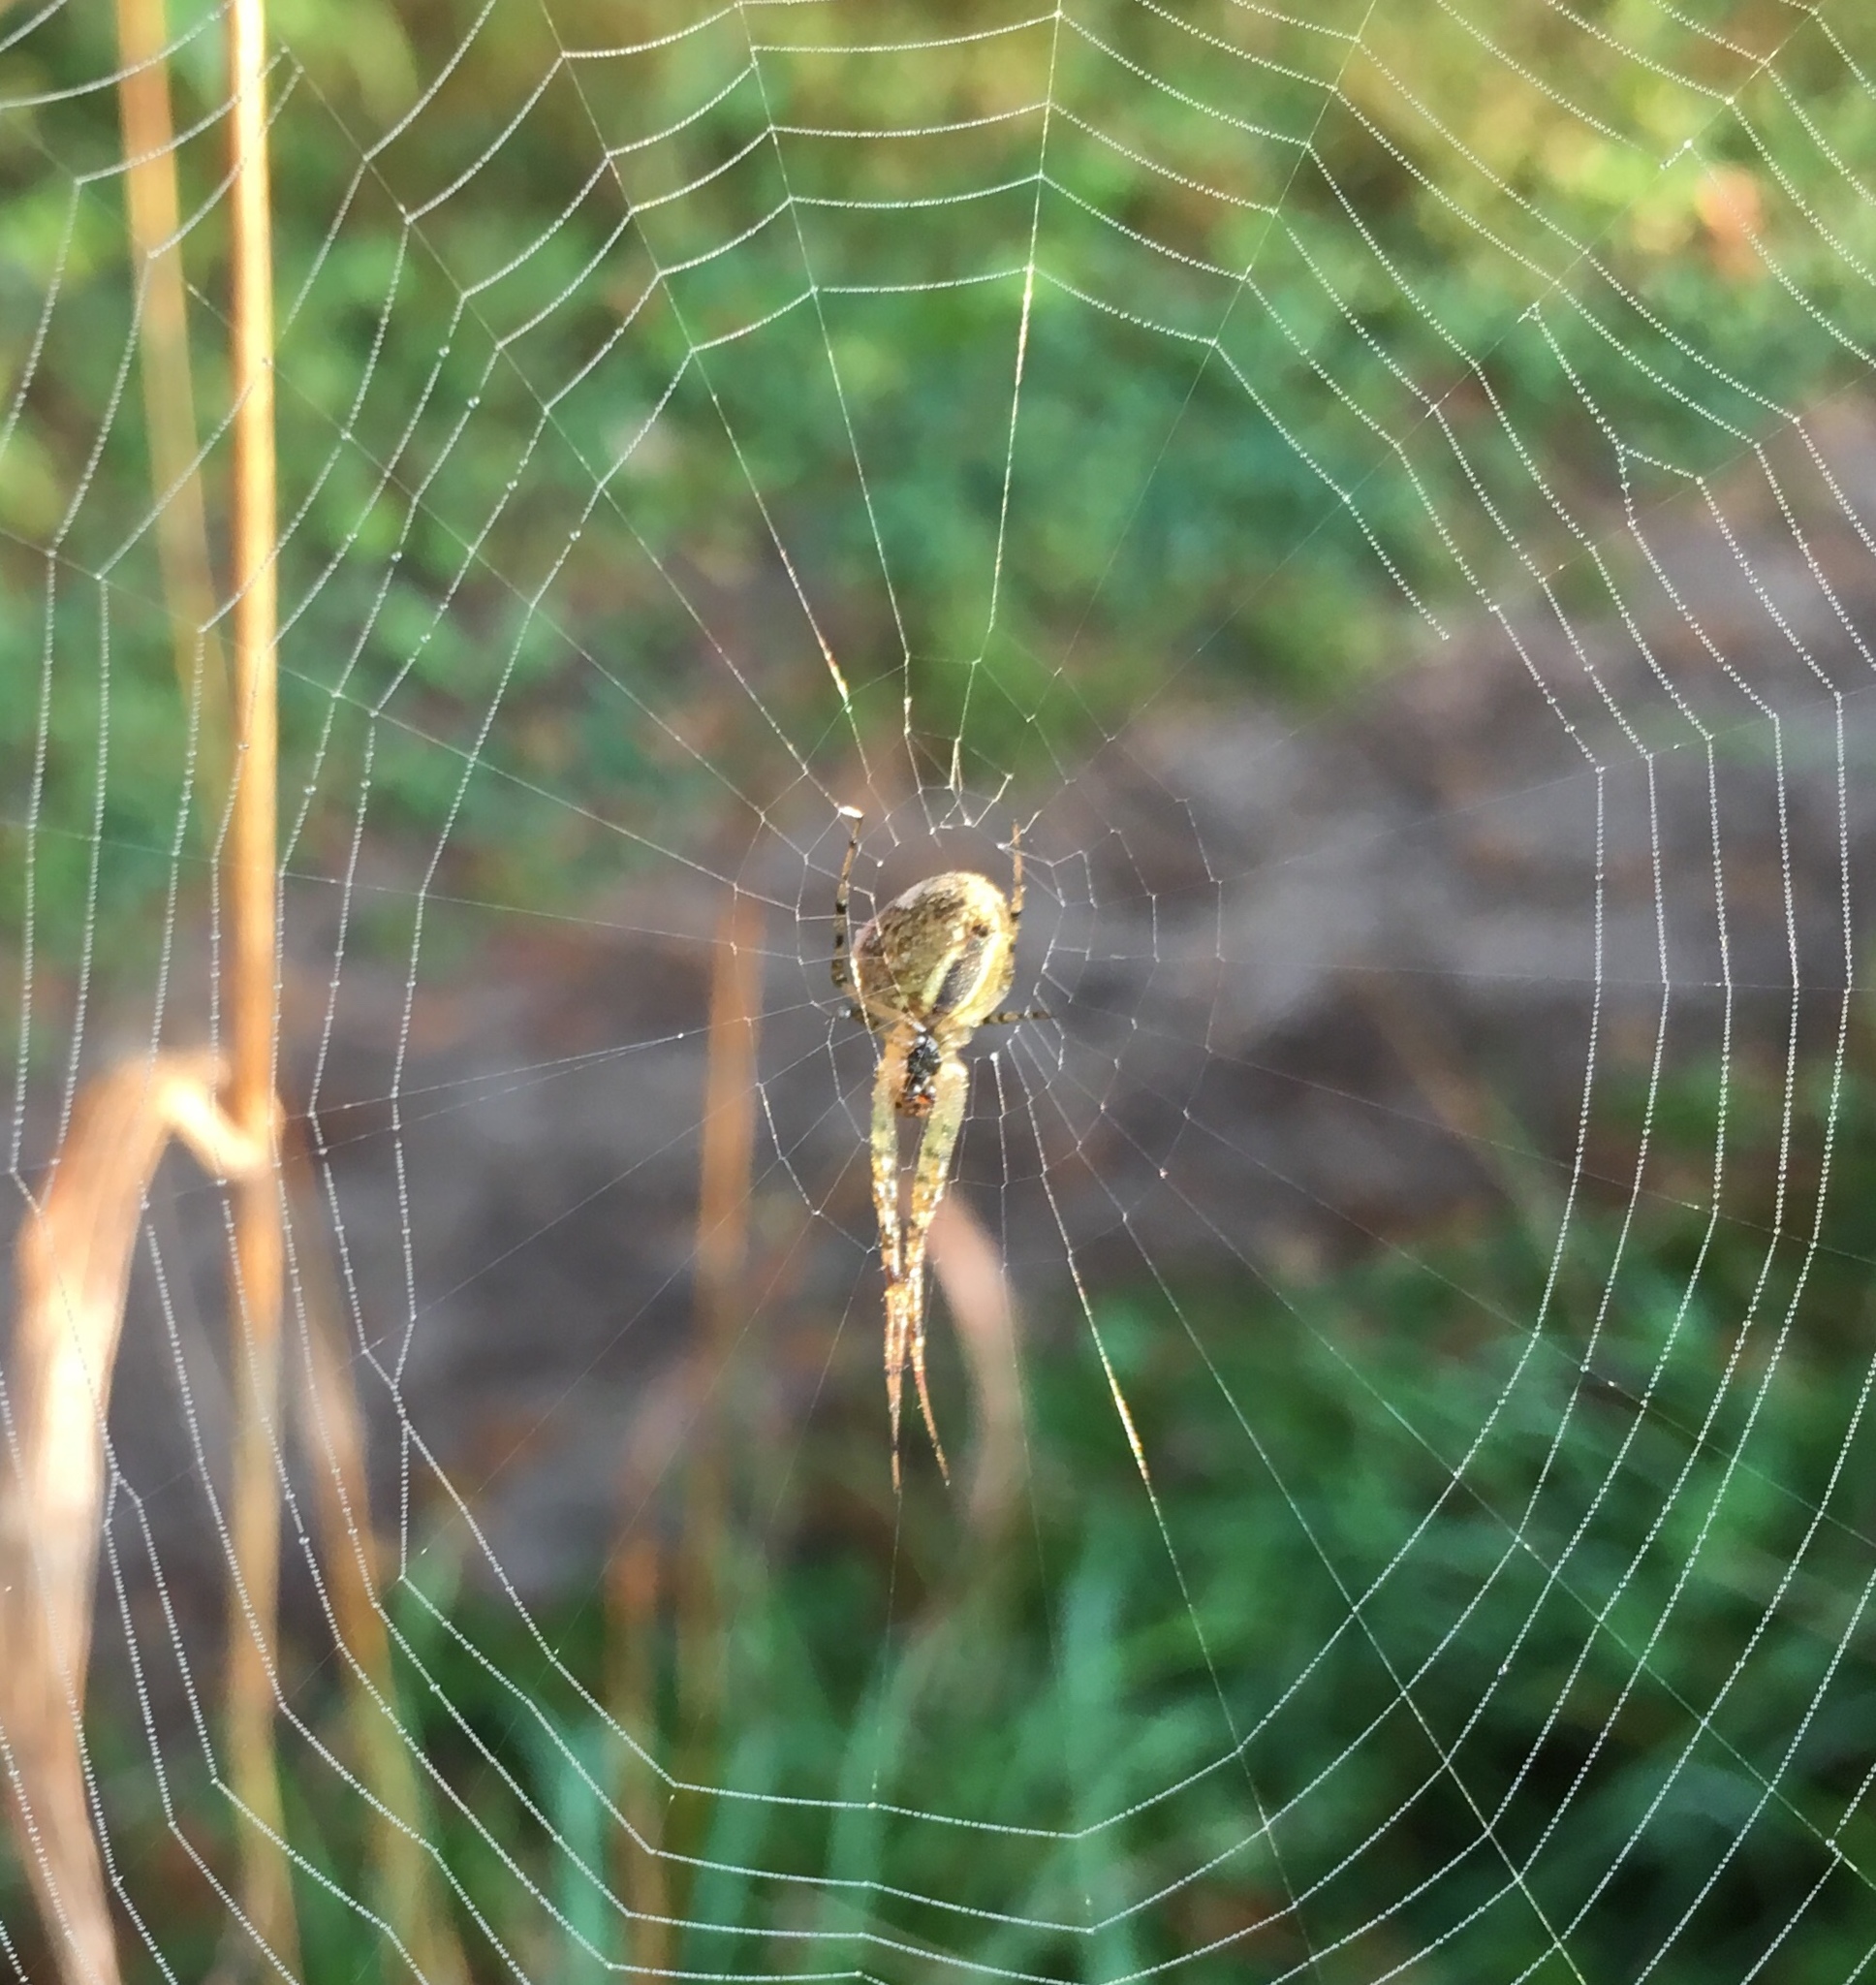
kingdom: Animalia
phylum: Arthropoda
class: Arachnida
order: Araneae
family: Tetragnathidae
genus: Metellina
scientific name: Metellina segmentata
